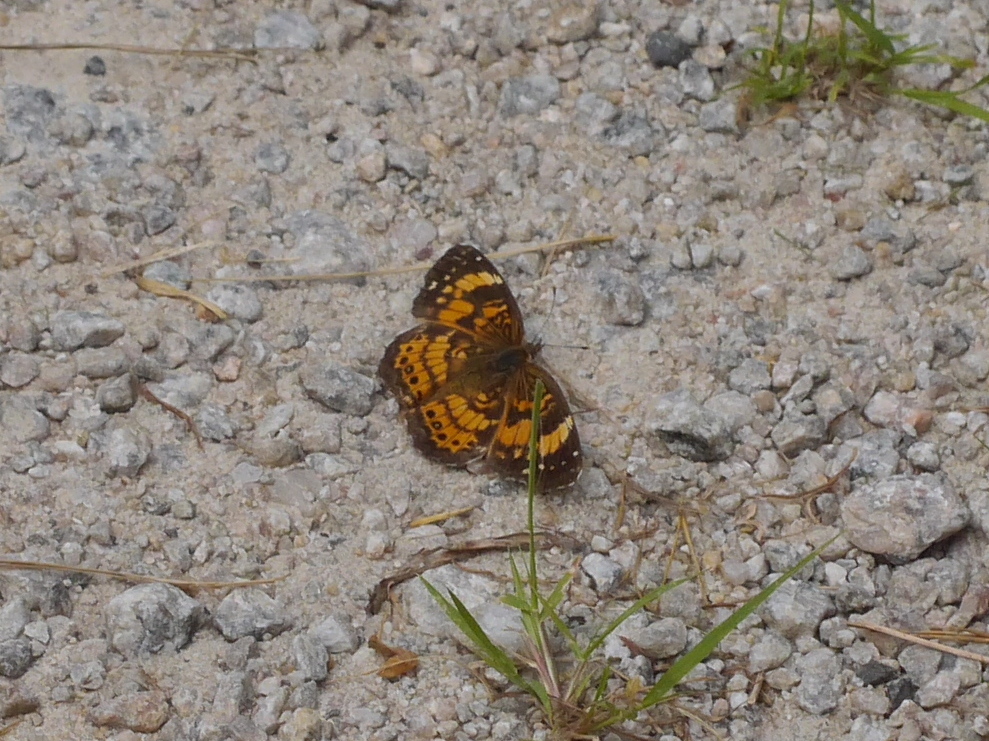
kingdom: Animalia
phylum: Arthropoda
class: Insecta
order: Lepidoptera
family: Nymphalidae
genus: Chlosyne
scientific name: Chlosyne nycteis
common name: Silvery checkerspot
